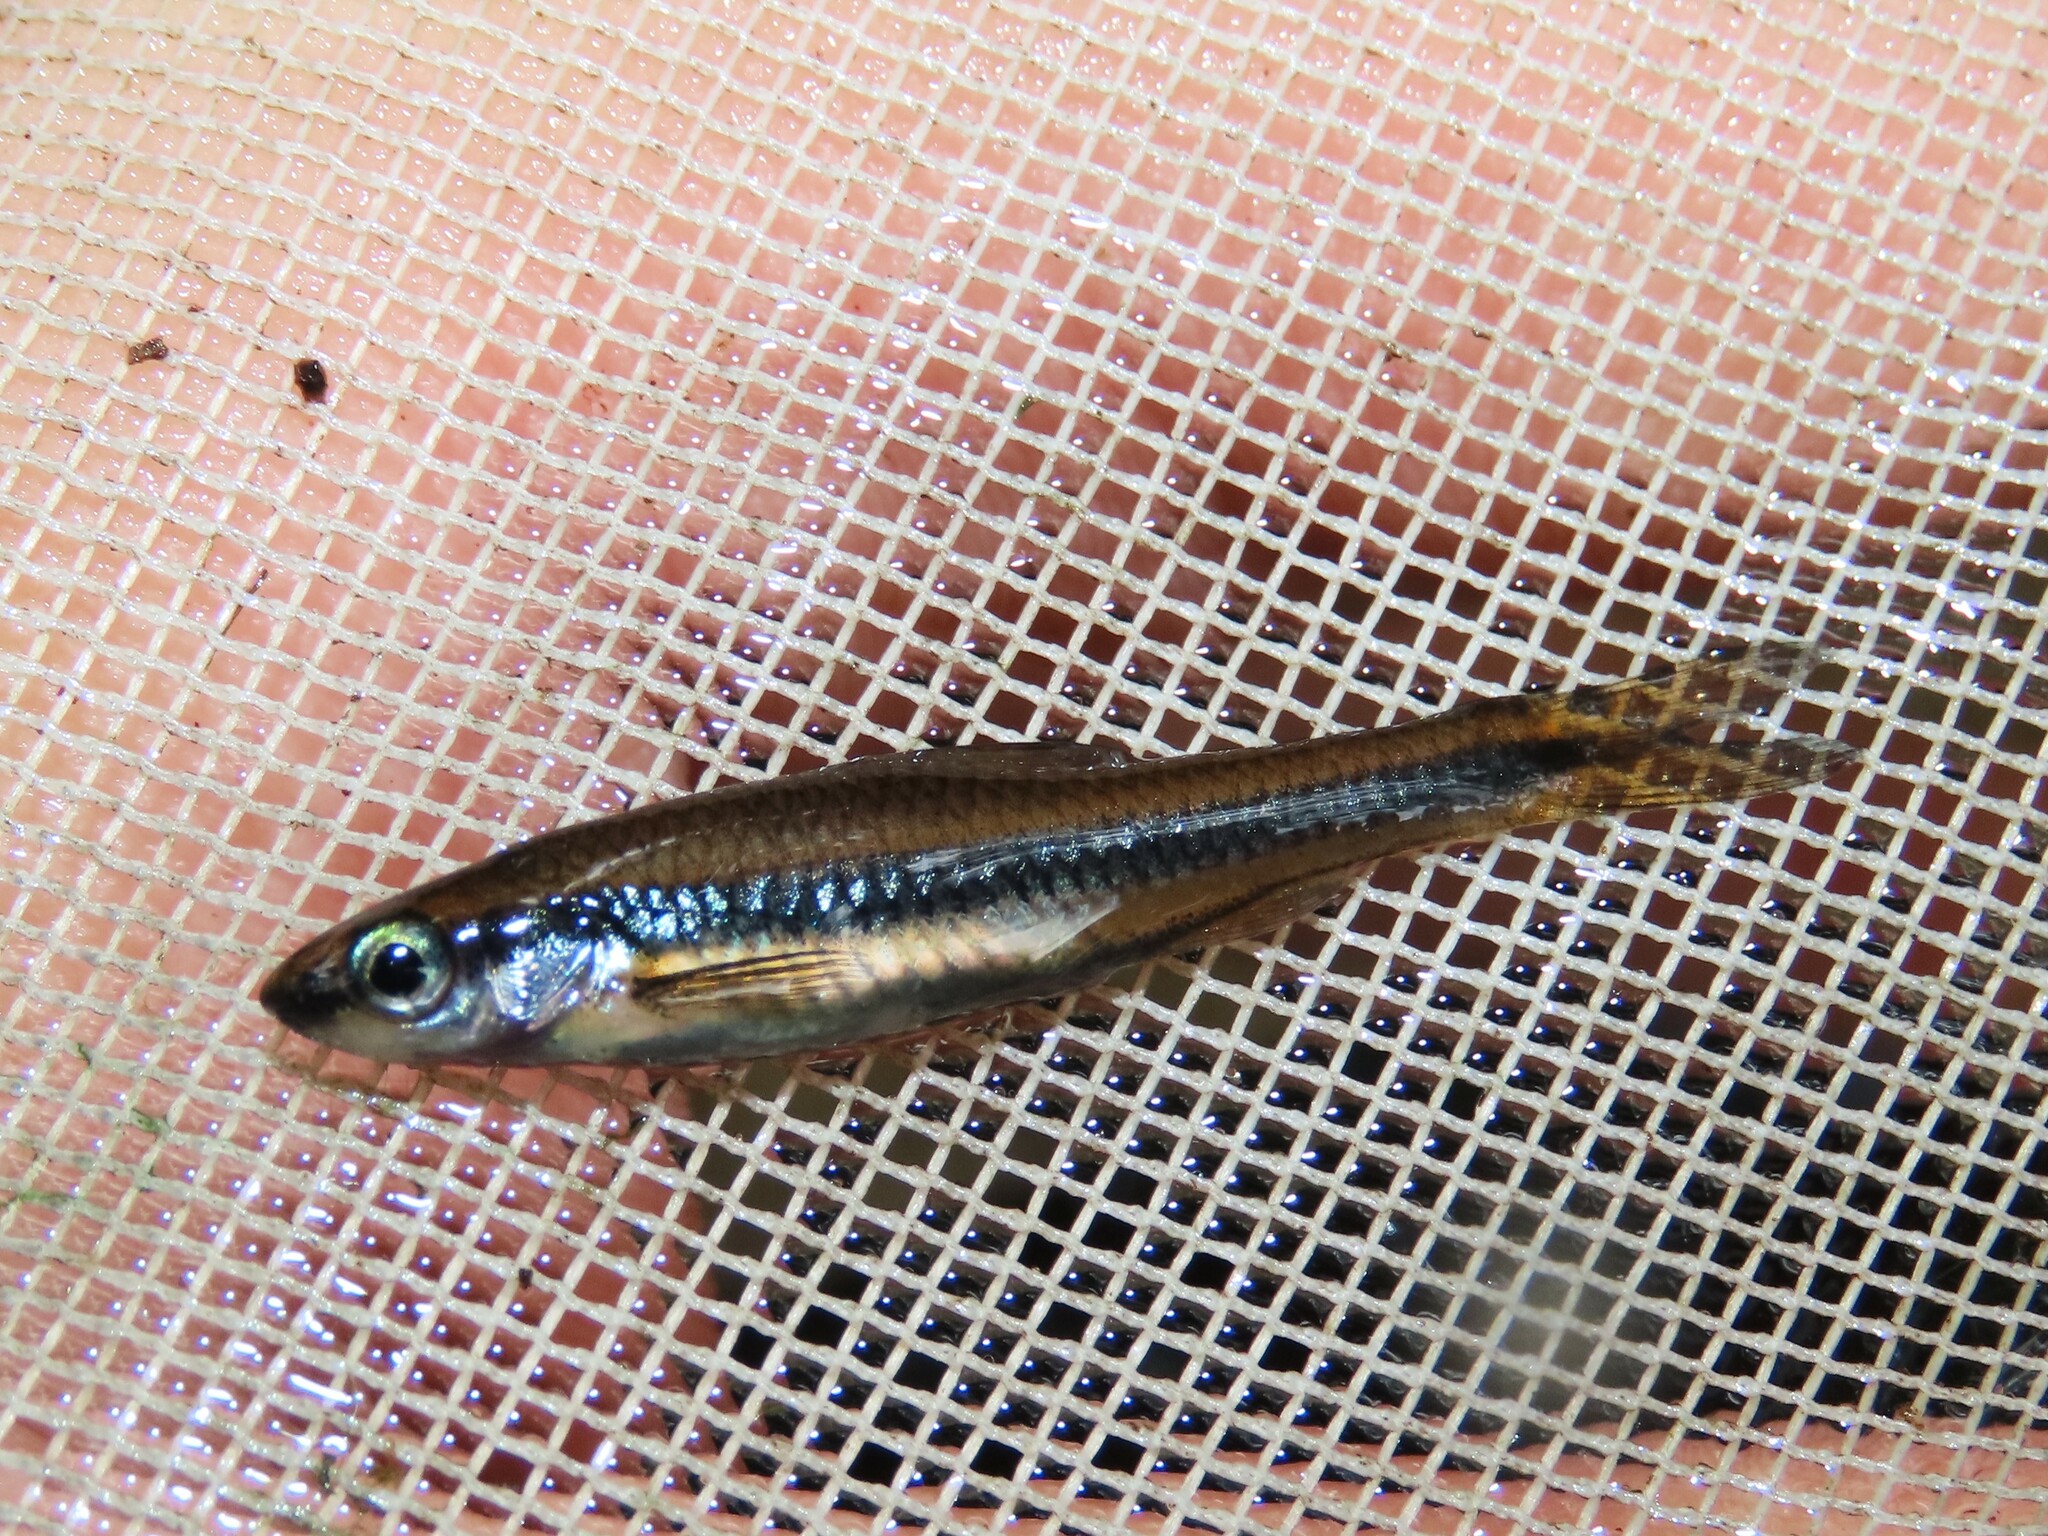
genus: Alburnops
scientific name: Alburnops
